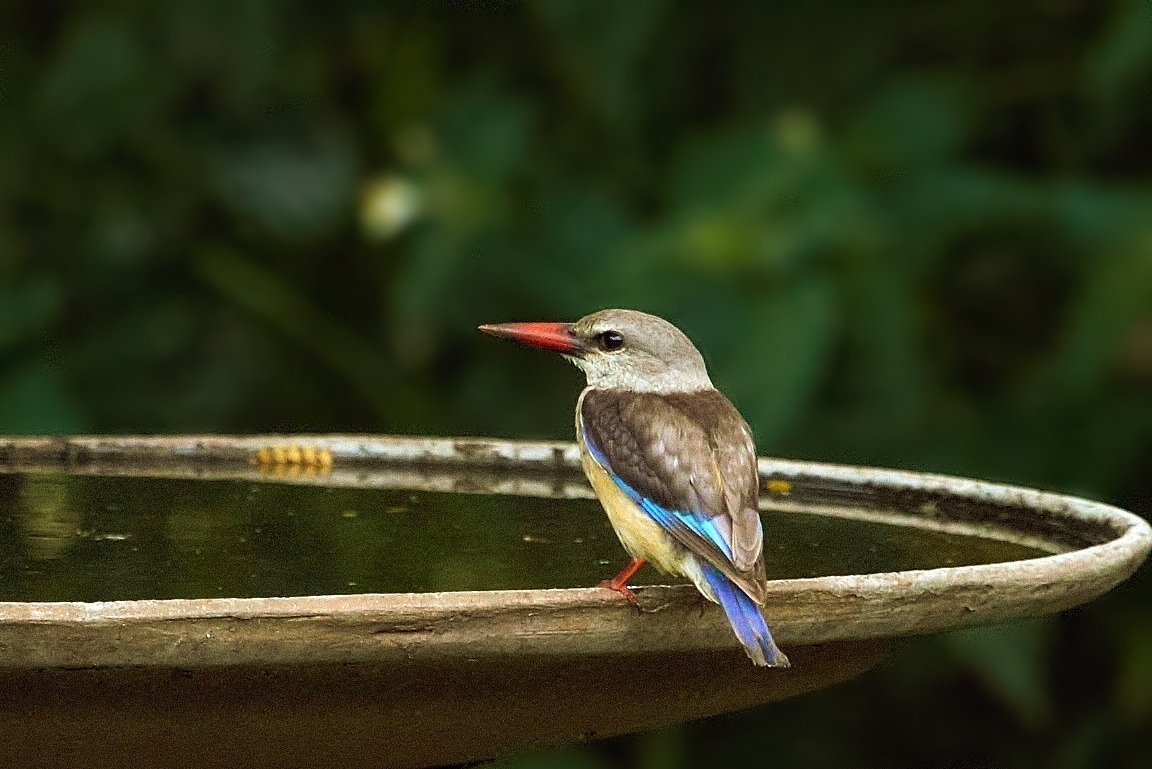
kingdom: Animalia
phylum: Chordata
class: Aves
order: Coraciiformes
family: Alcedinidae
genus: Halcyon
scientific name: Halcyon albiventris
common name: Brown-hooded kingfisher
